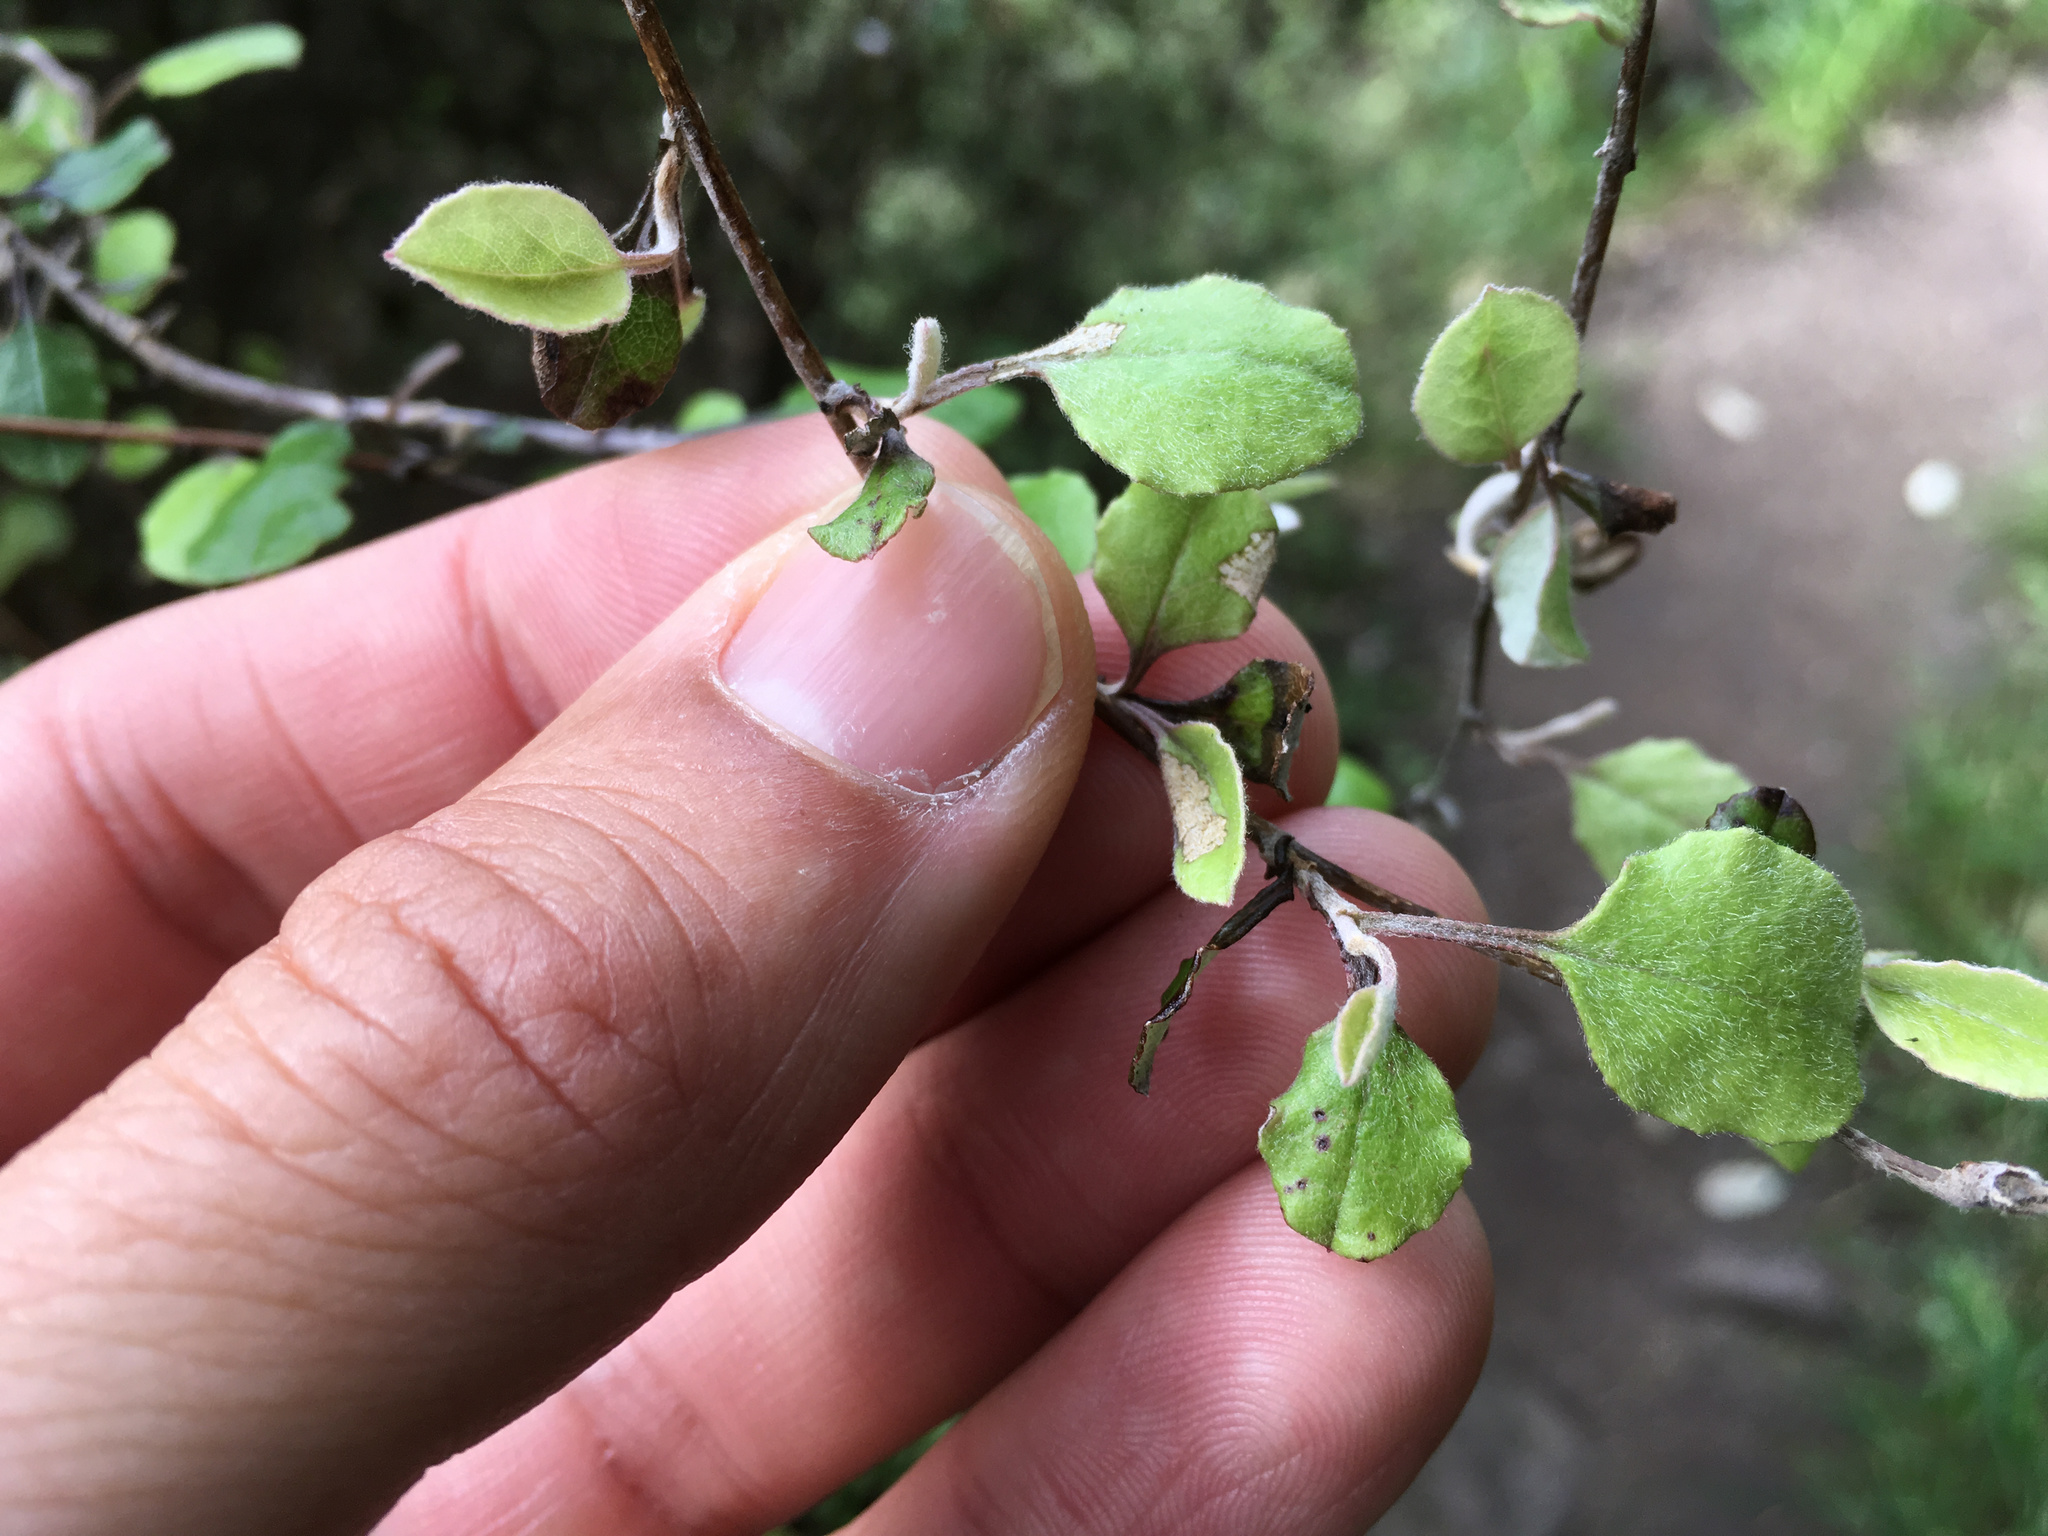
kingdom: Plantae
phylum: Tracheophyta
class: Magnoliopsida
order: Asterales
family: Asteraceae
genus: Ozothamnus
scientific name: Ozothamnus glomeratus
